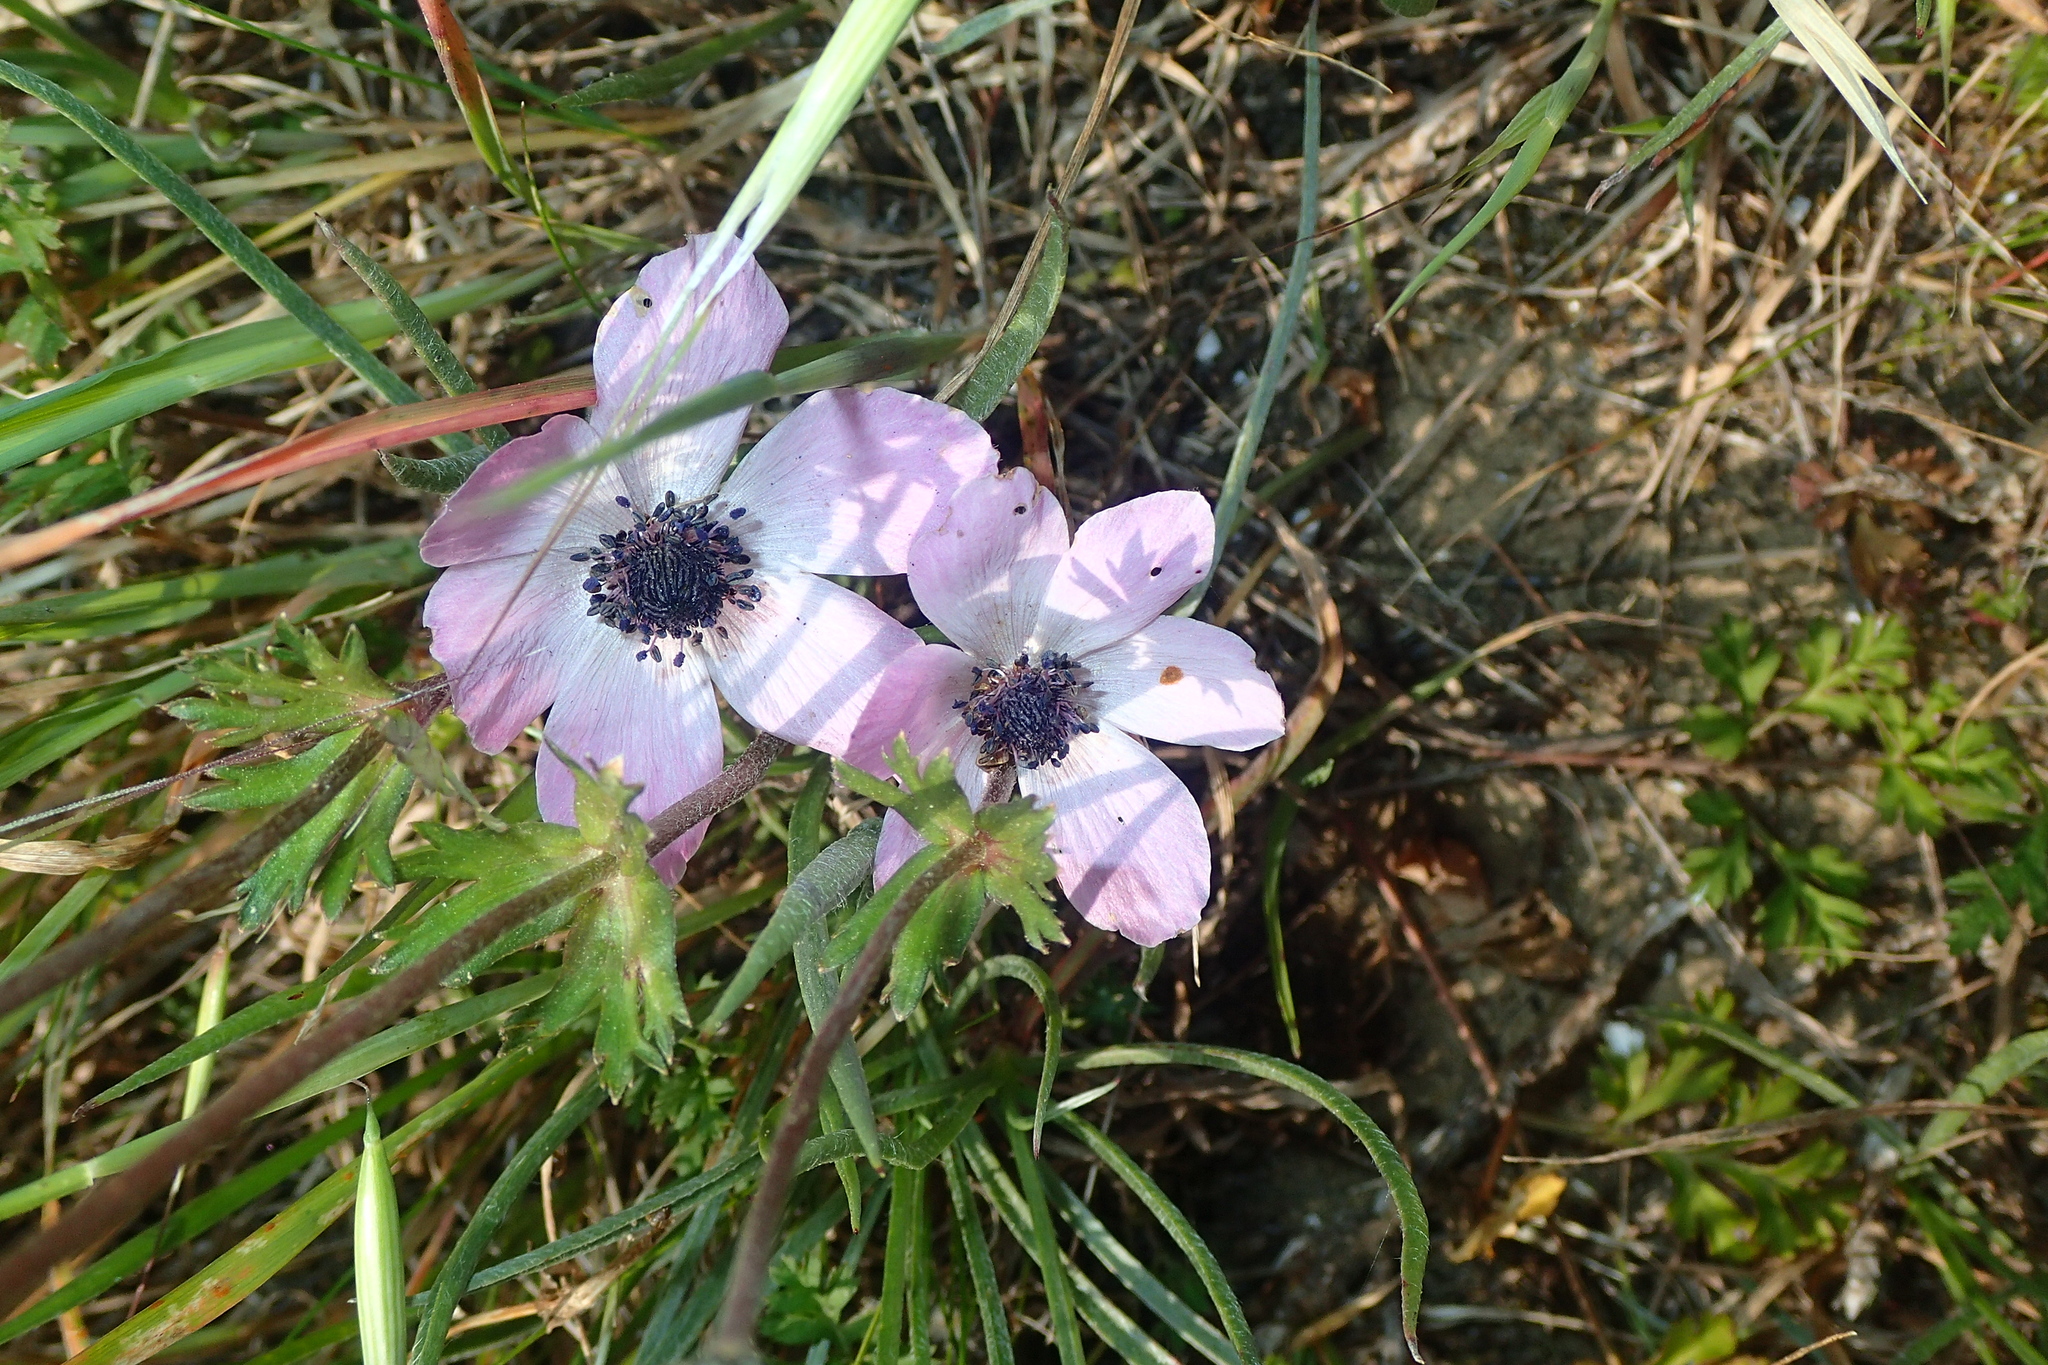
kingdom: Plantae
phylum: Tracheophyta
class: Magnoliopsida
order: Ranunculales
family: Ranunculaceae
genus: Anemone
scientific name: Anemone coronaria
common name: Poppy anemone
